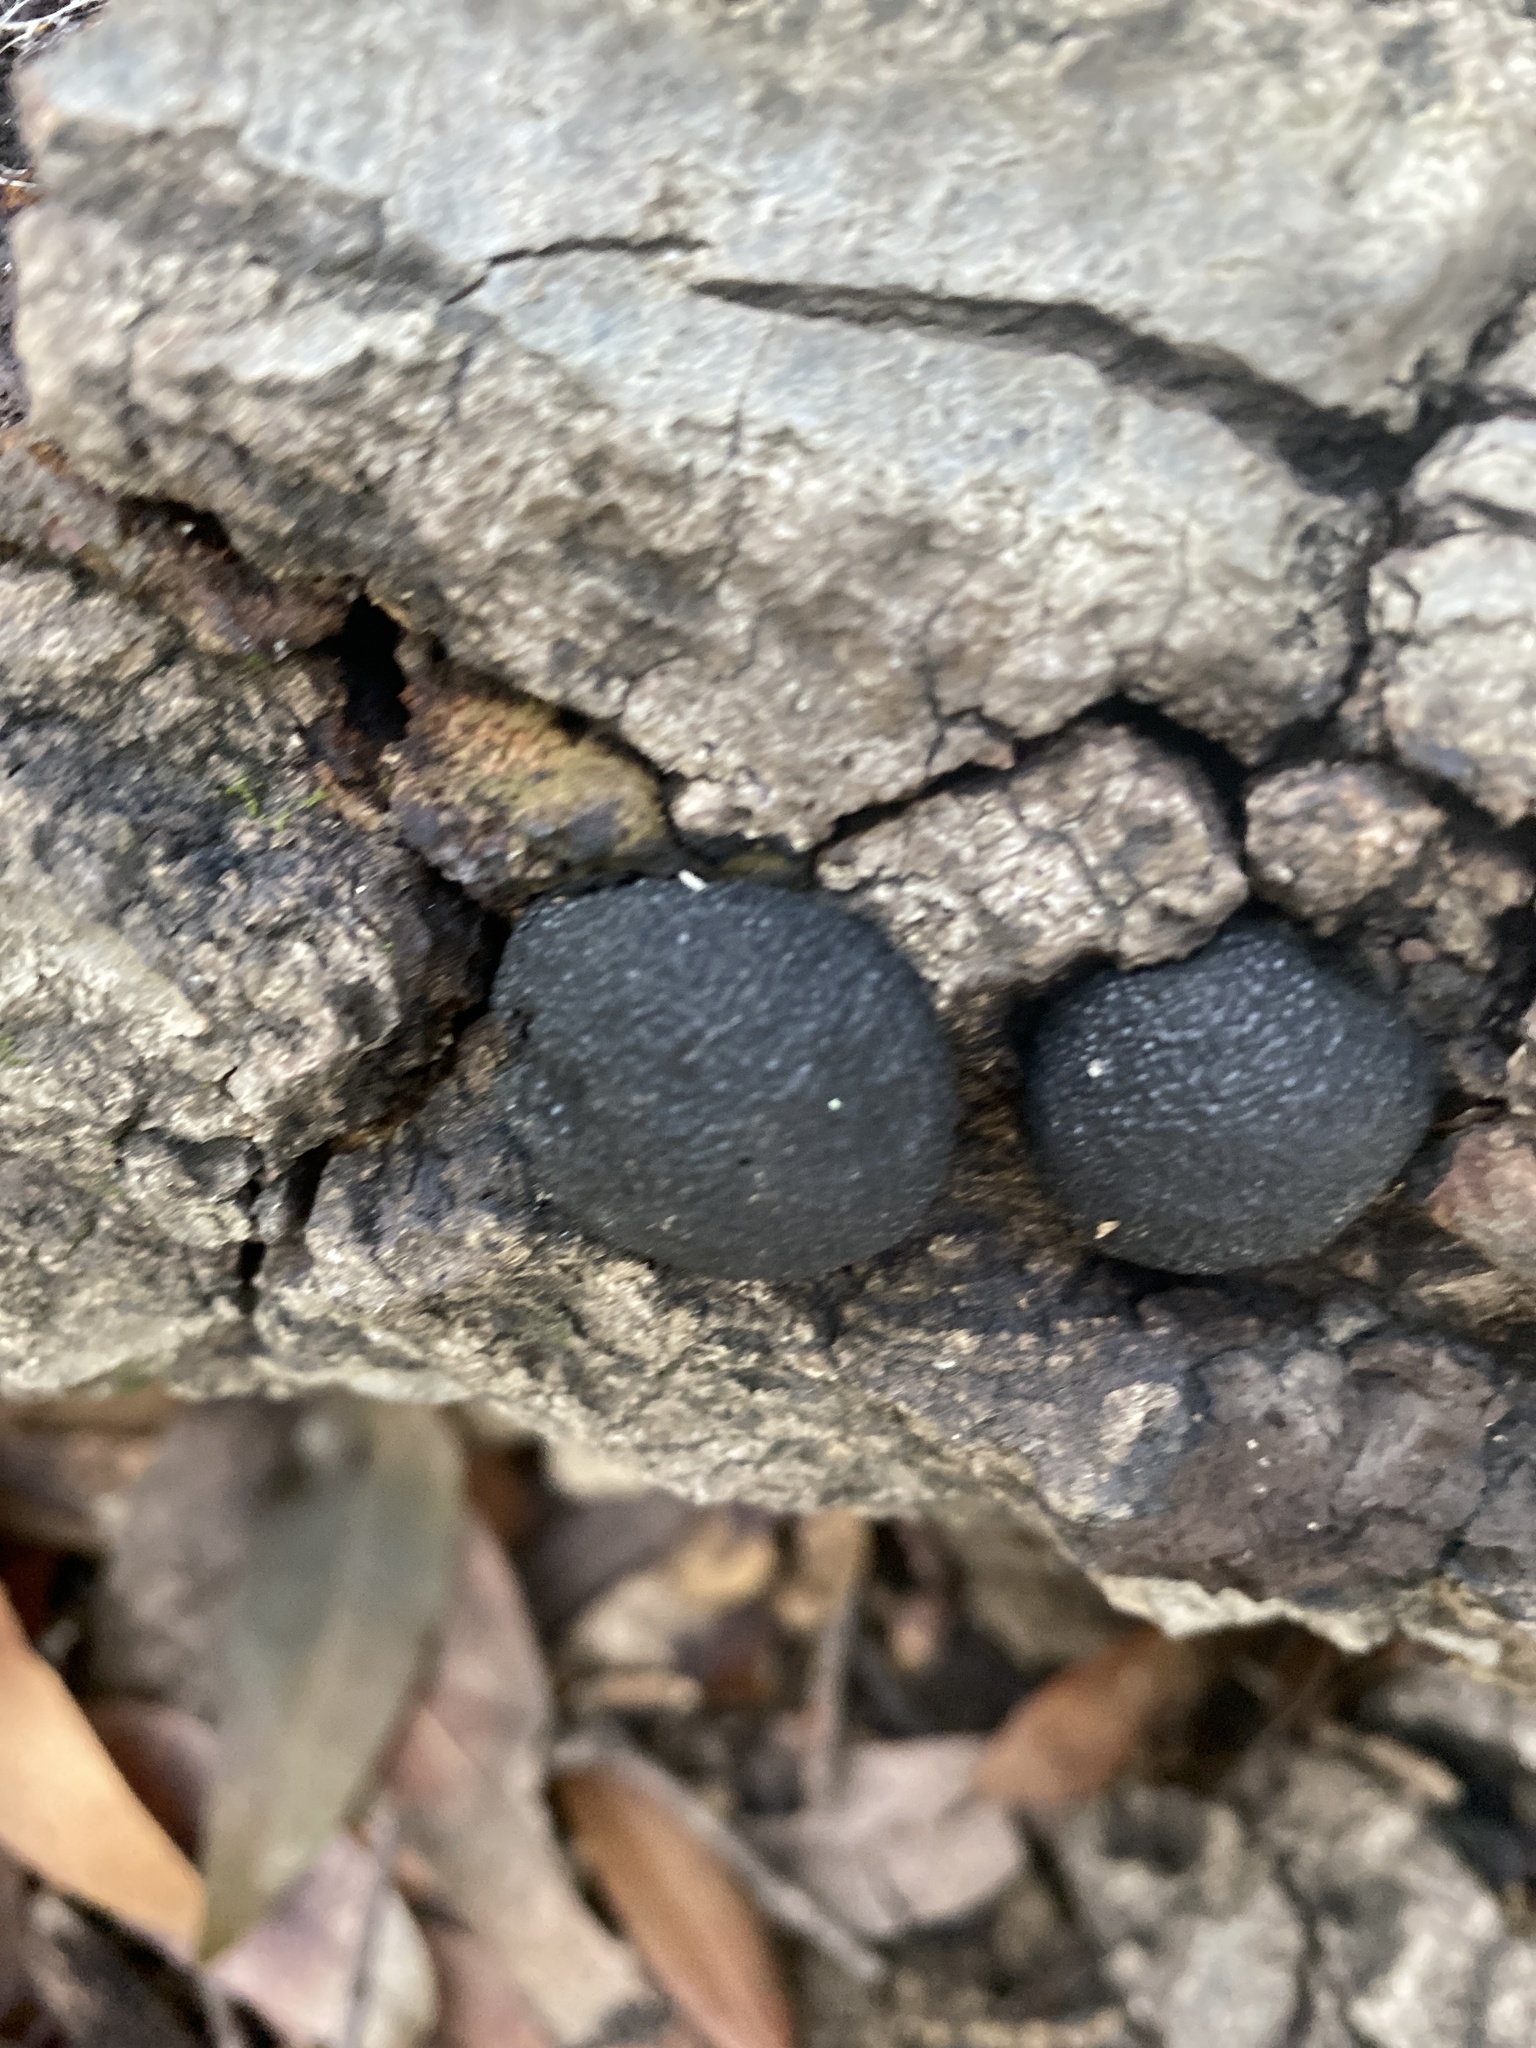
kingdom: Fungi
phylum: Ascomycota
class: Sordariomycetes
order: Xylariales
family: Hypoxylaceae
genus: Annulohypoxylon
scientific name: Annulohypoxylon thouarsianum
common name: Cramp balls
